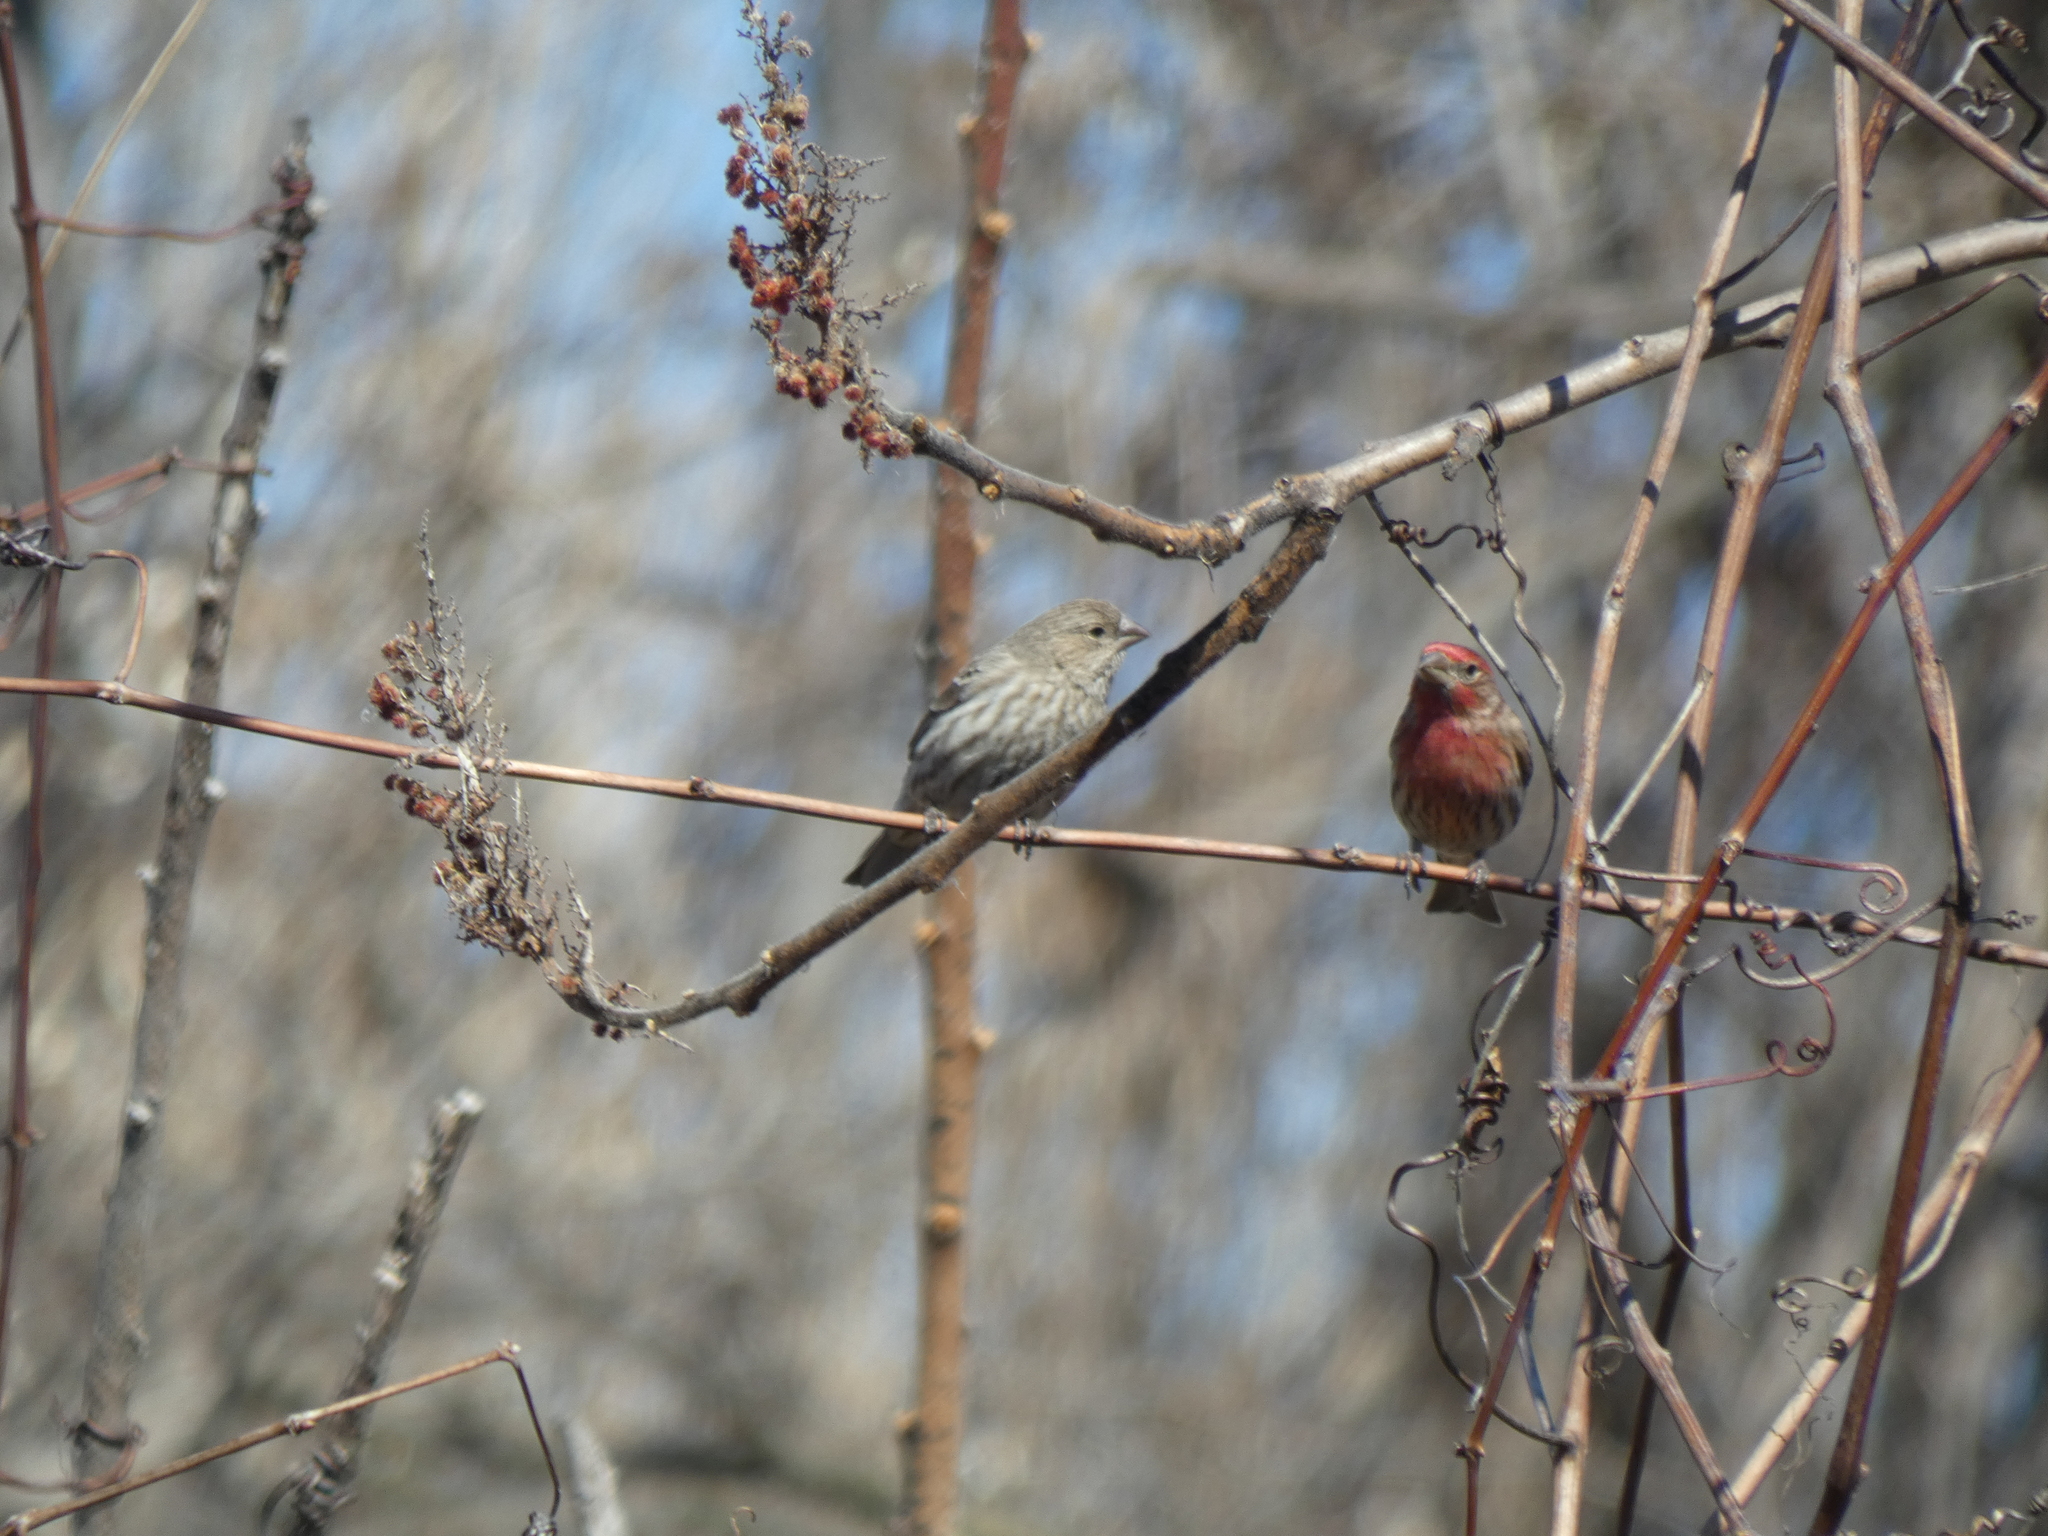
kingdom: Animalia
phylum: Chordata
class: Aves
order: Passeriformes
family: Fringillidae
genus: Haemorhous
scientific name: Haemorhous mexicanus
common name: House finch
